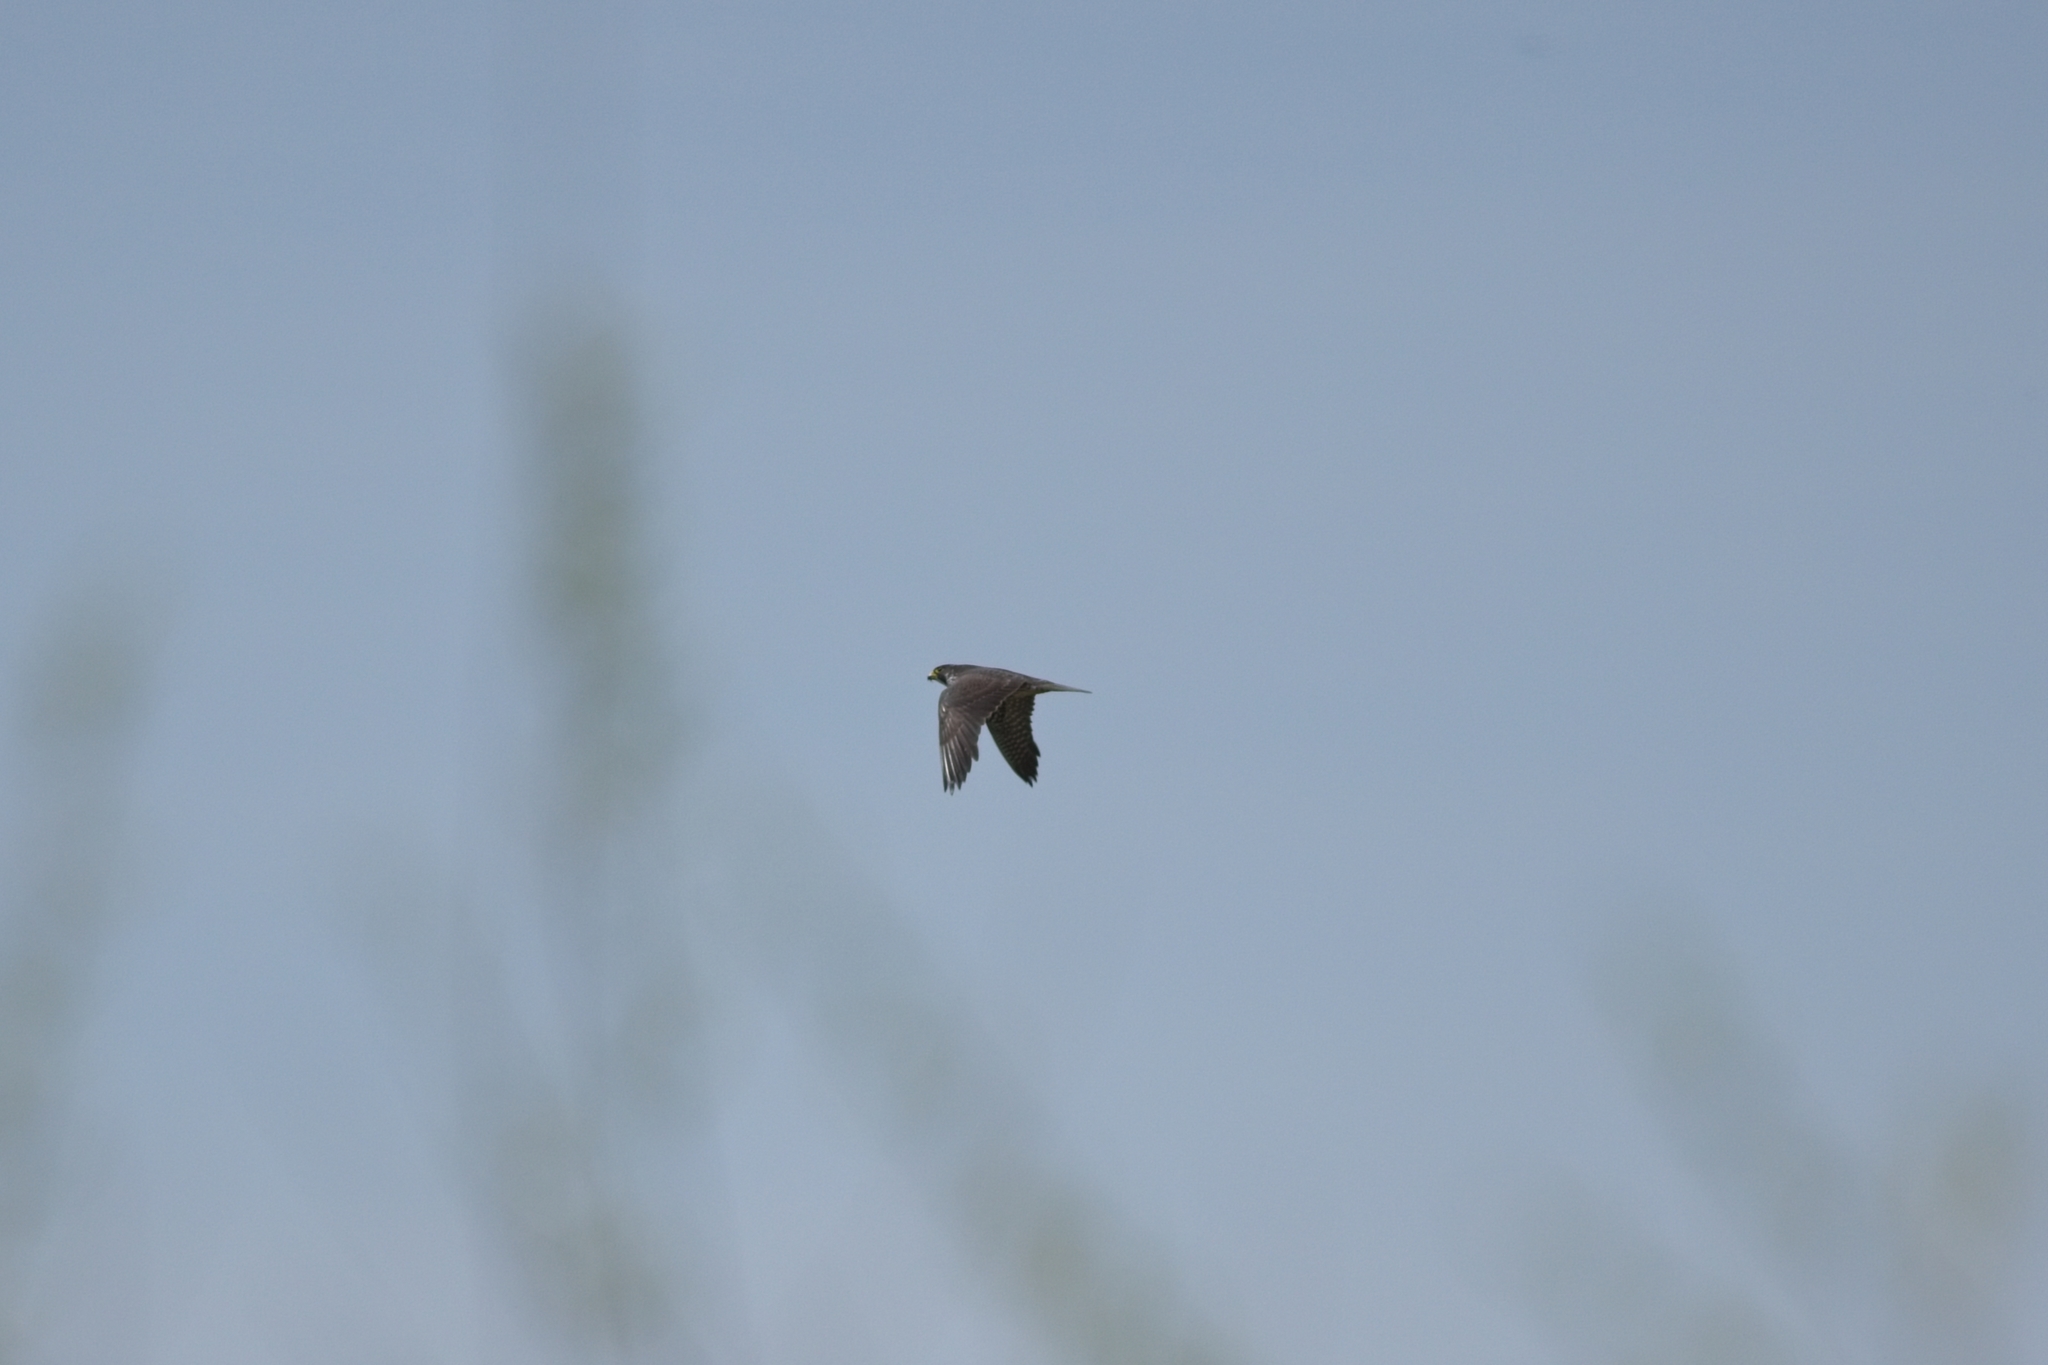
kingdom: Animalia
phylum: Chordata
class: Aves
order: Falconiformes
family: Falconidae
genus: Falco
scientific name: Falco peregrinus
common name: Peregrine falcon
